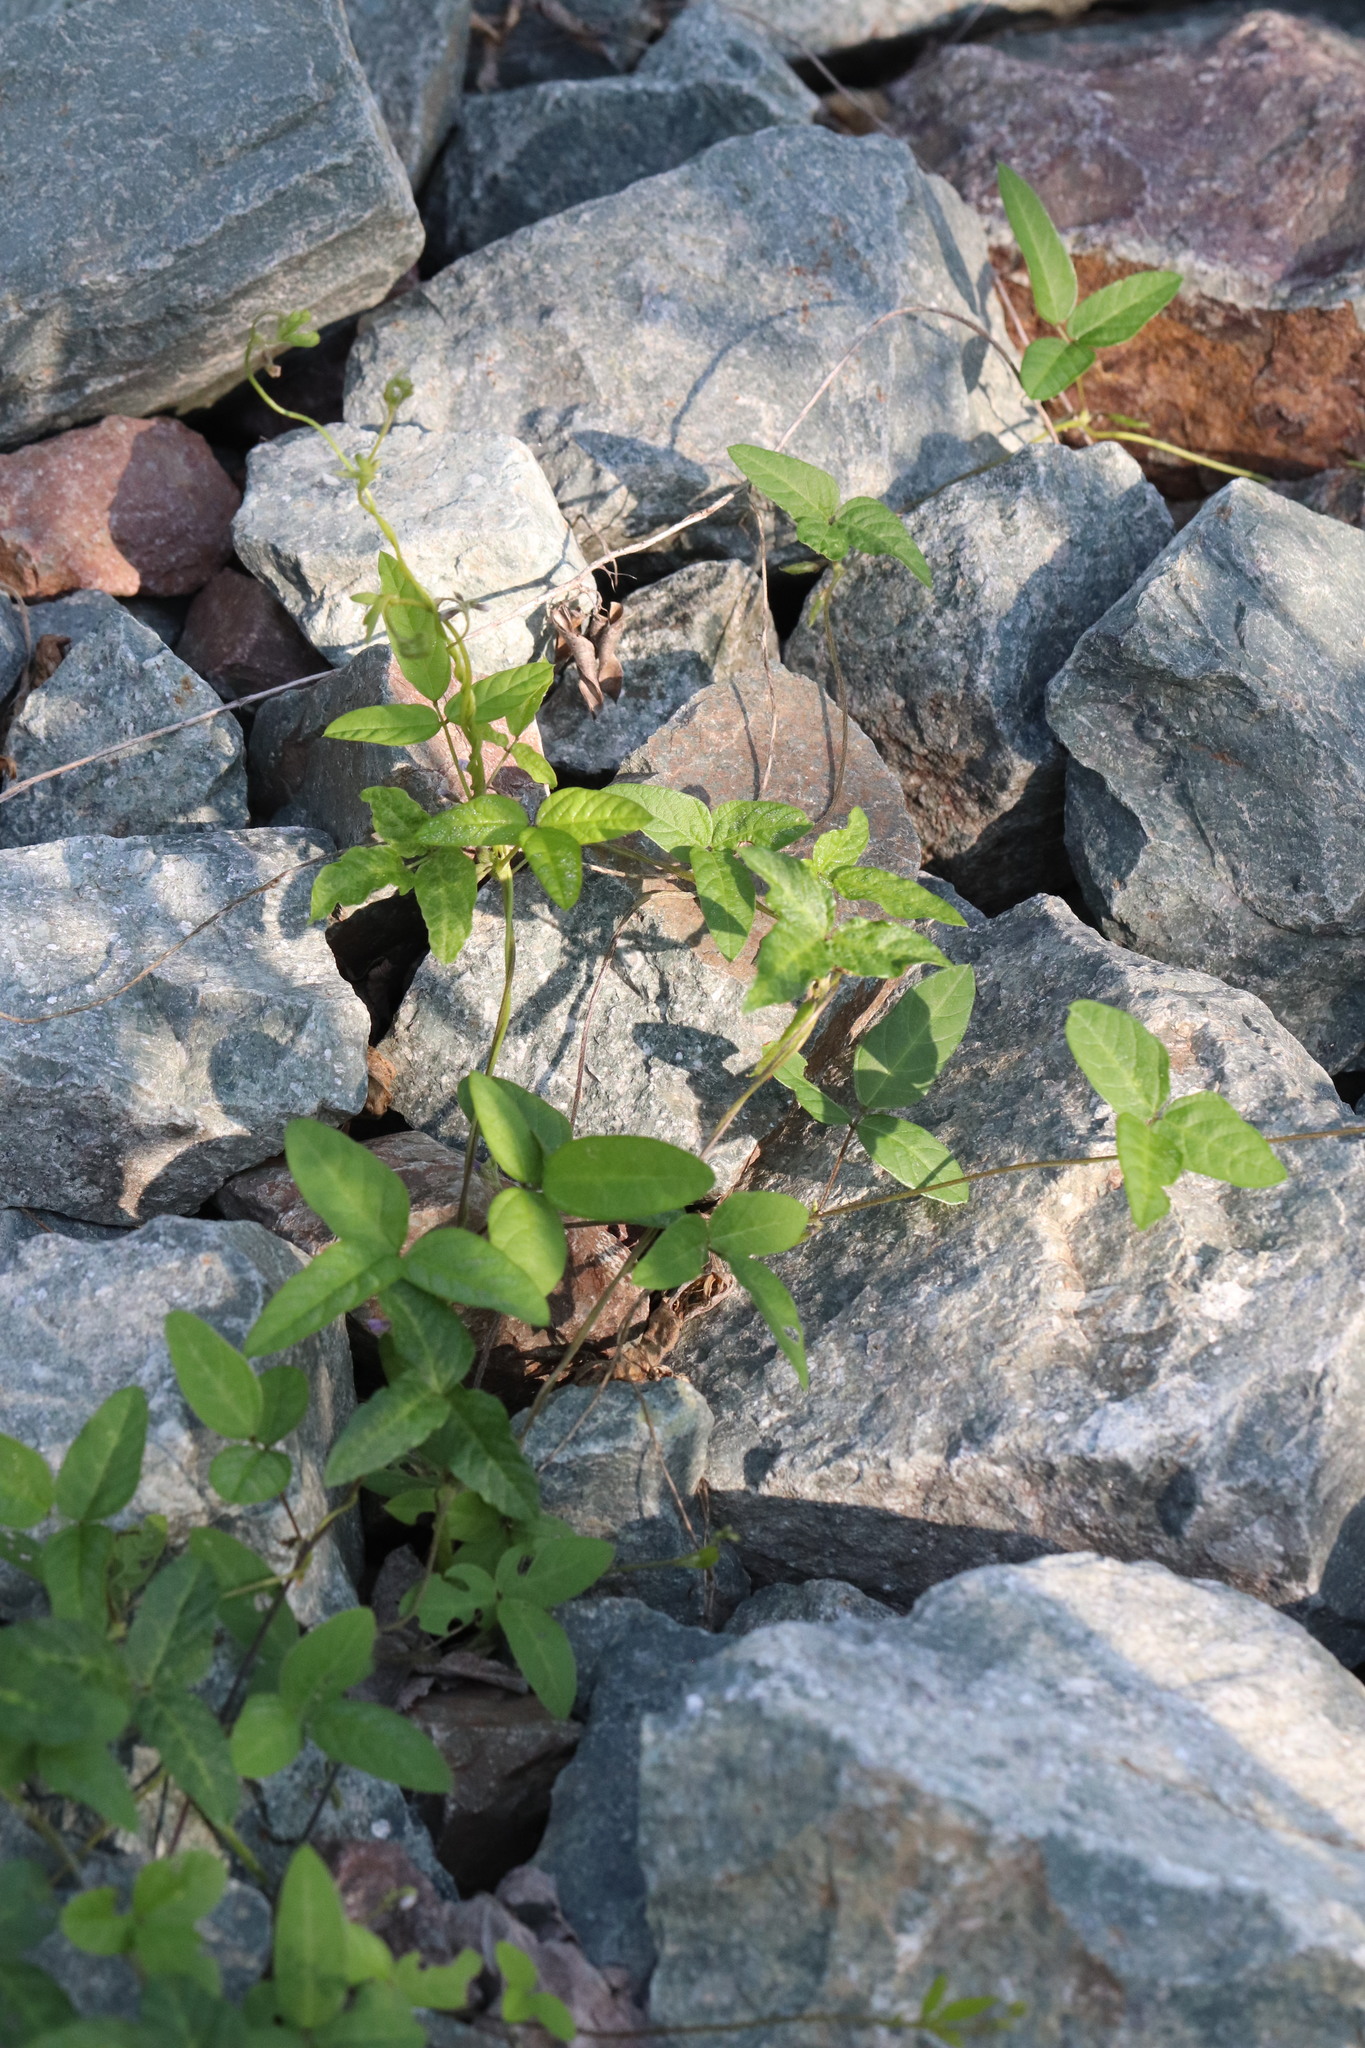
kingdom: Plantae
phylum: Tracheophyta
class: Magnoliopsida
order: Fabales
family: Fabaceae
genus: Glycine
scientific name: Glycine max
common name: Soya-bean
